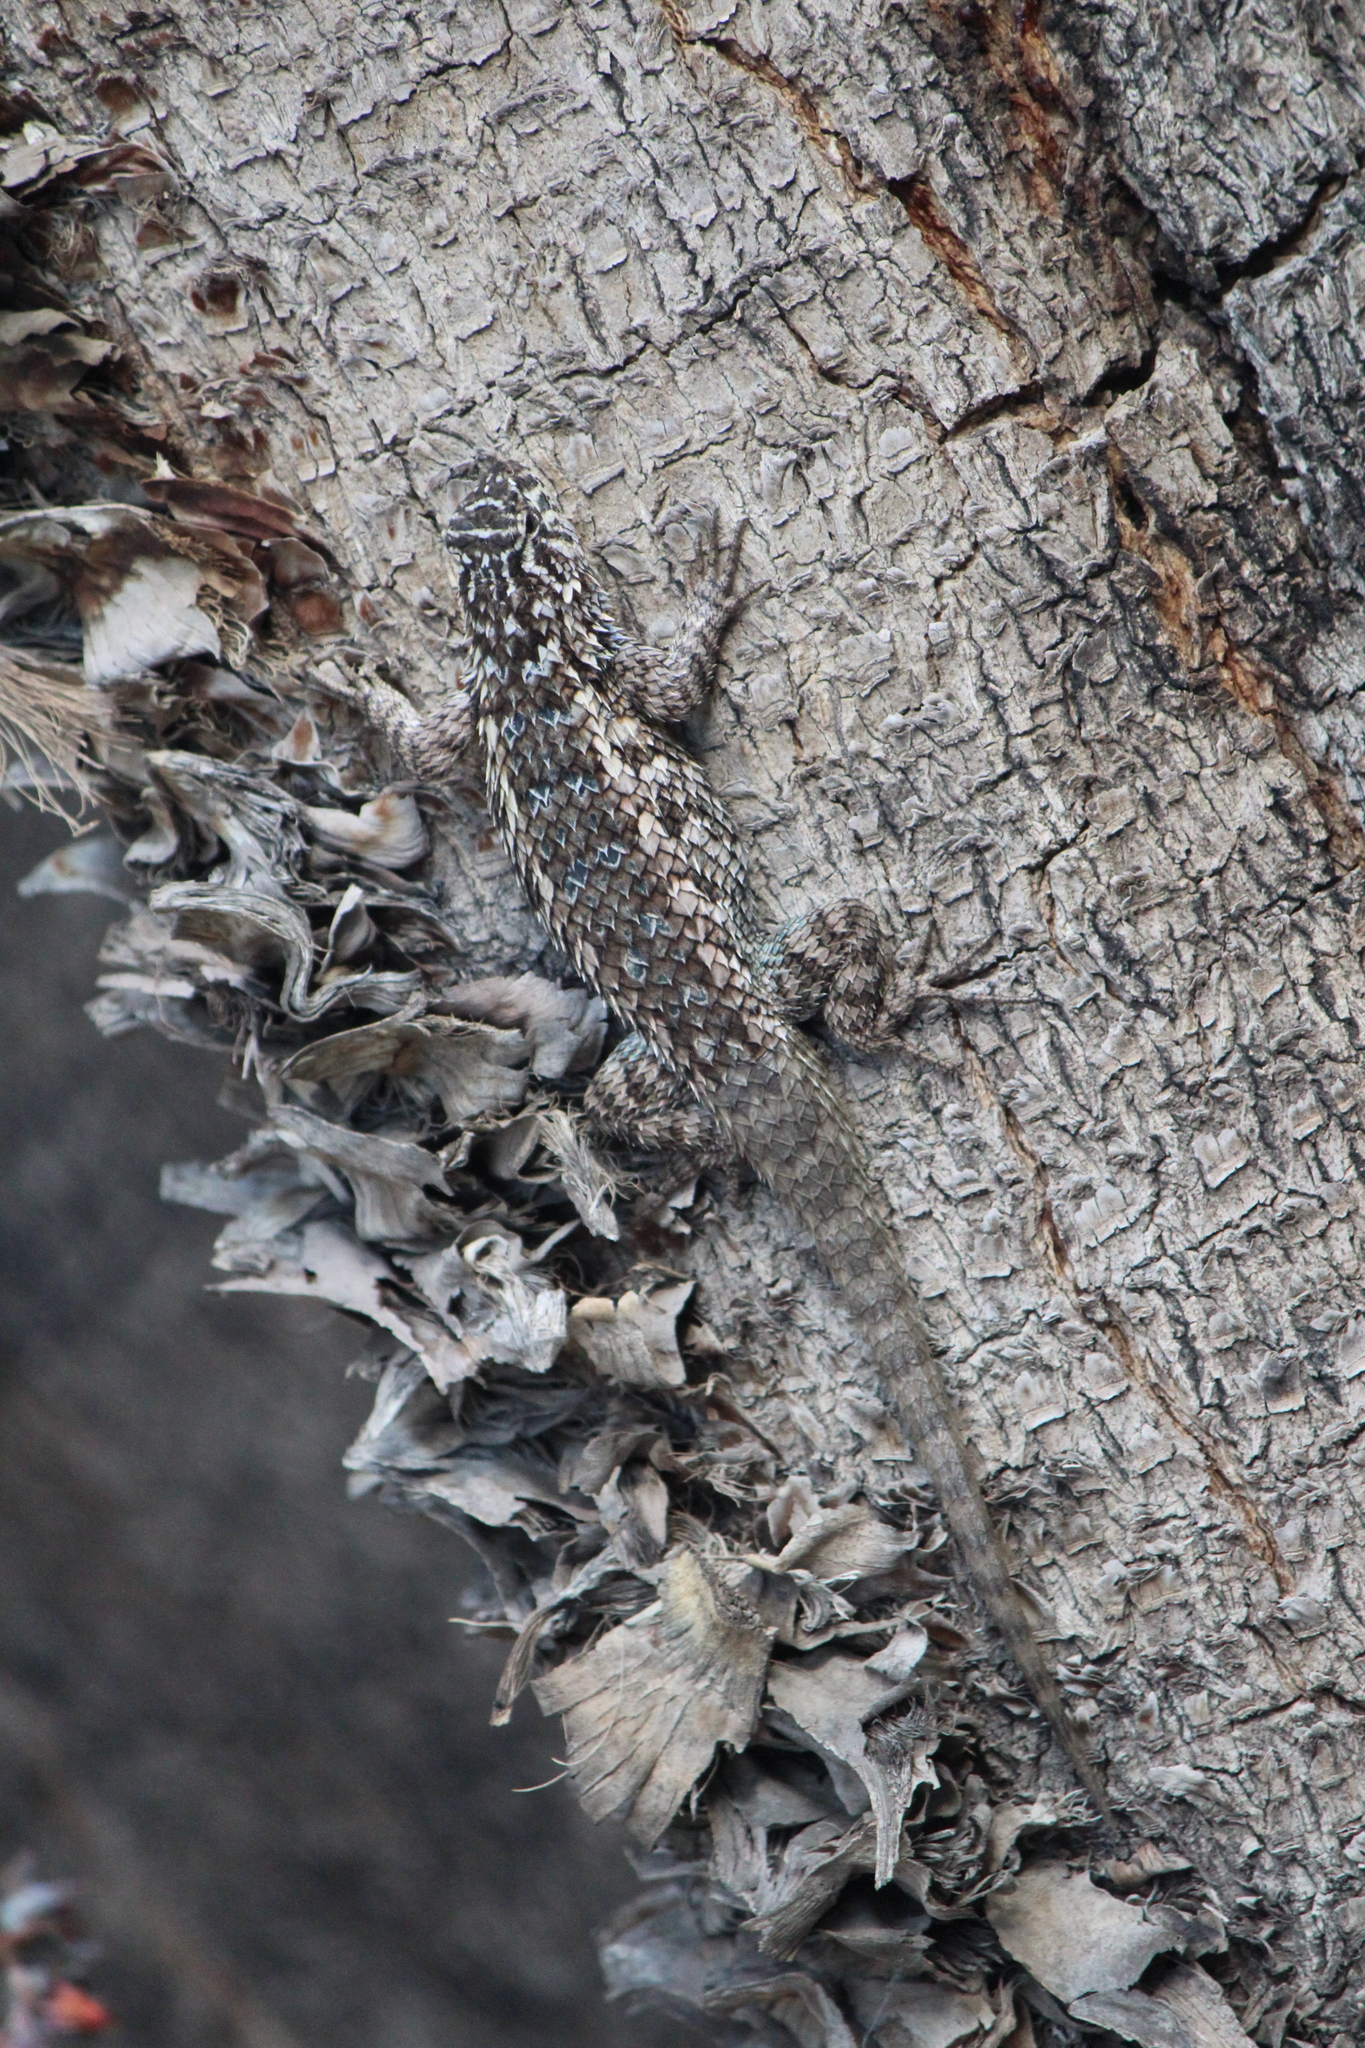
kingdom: Animalia
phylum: Chordata
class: Squamata
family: Phrynosomatidae
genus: Sceloporus
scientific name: Sceloporus spinosus
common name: Blue-spotted spiny lizard [caeruleopunctatus]
